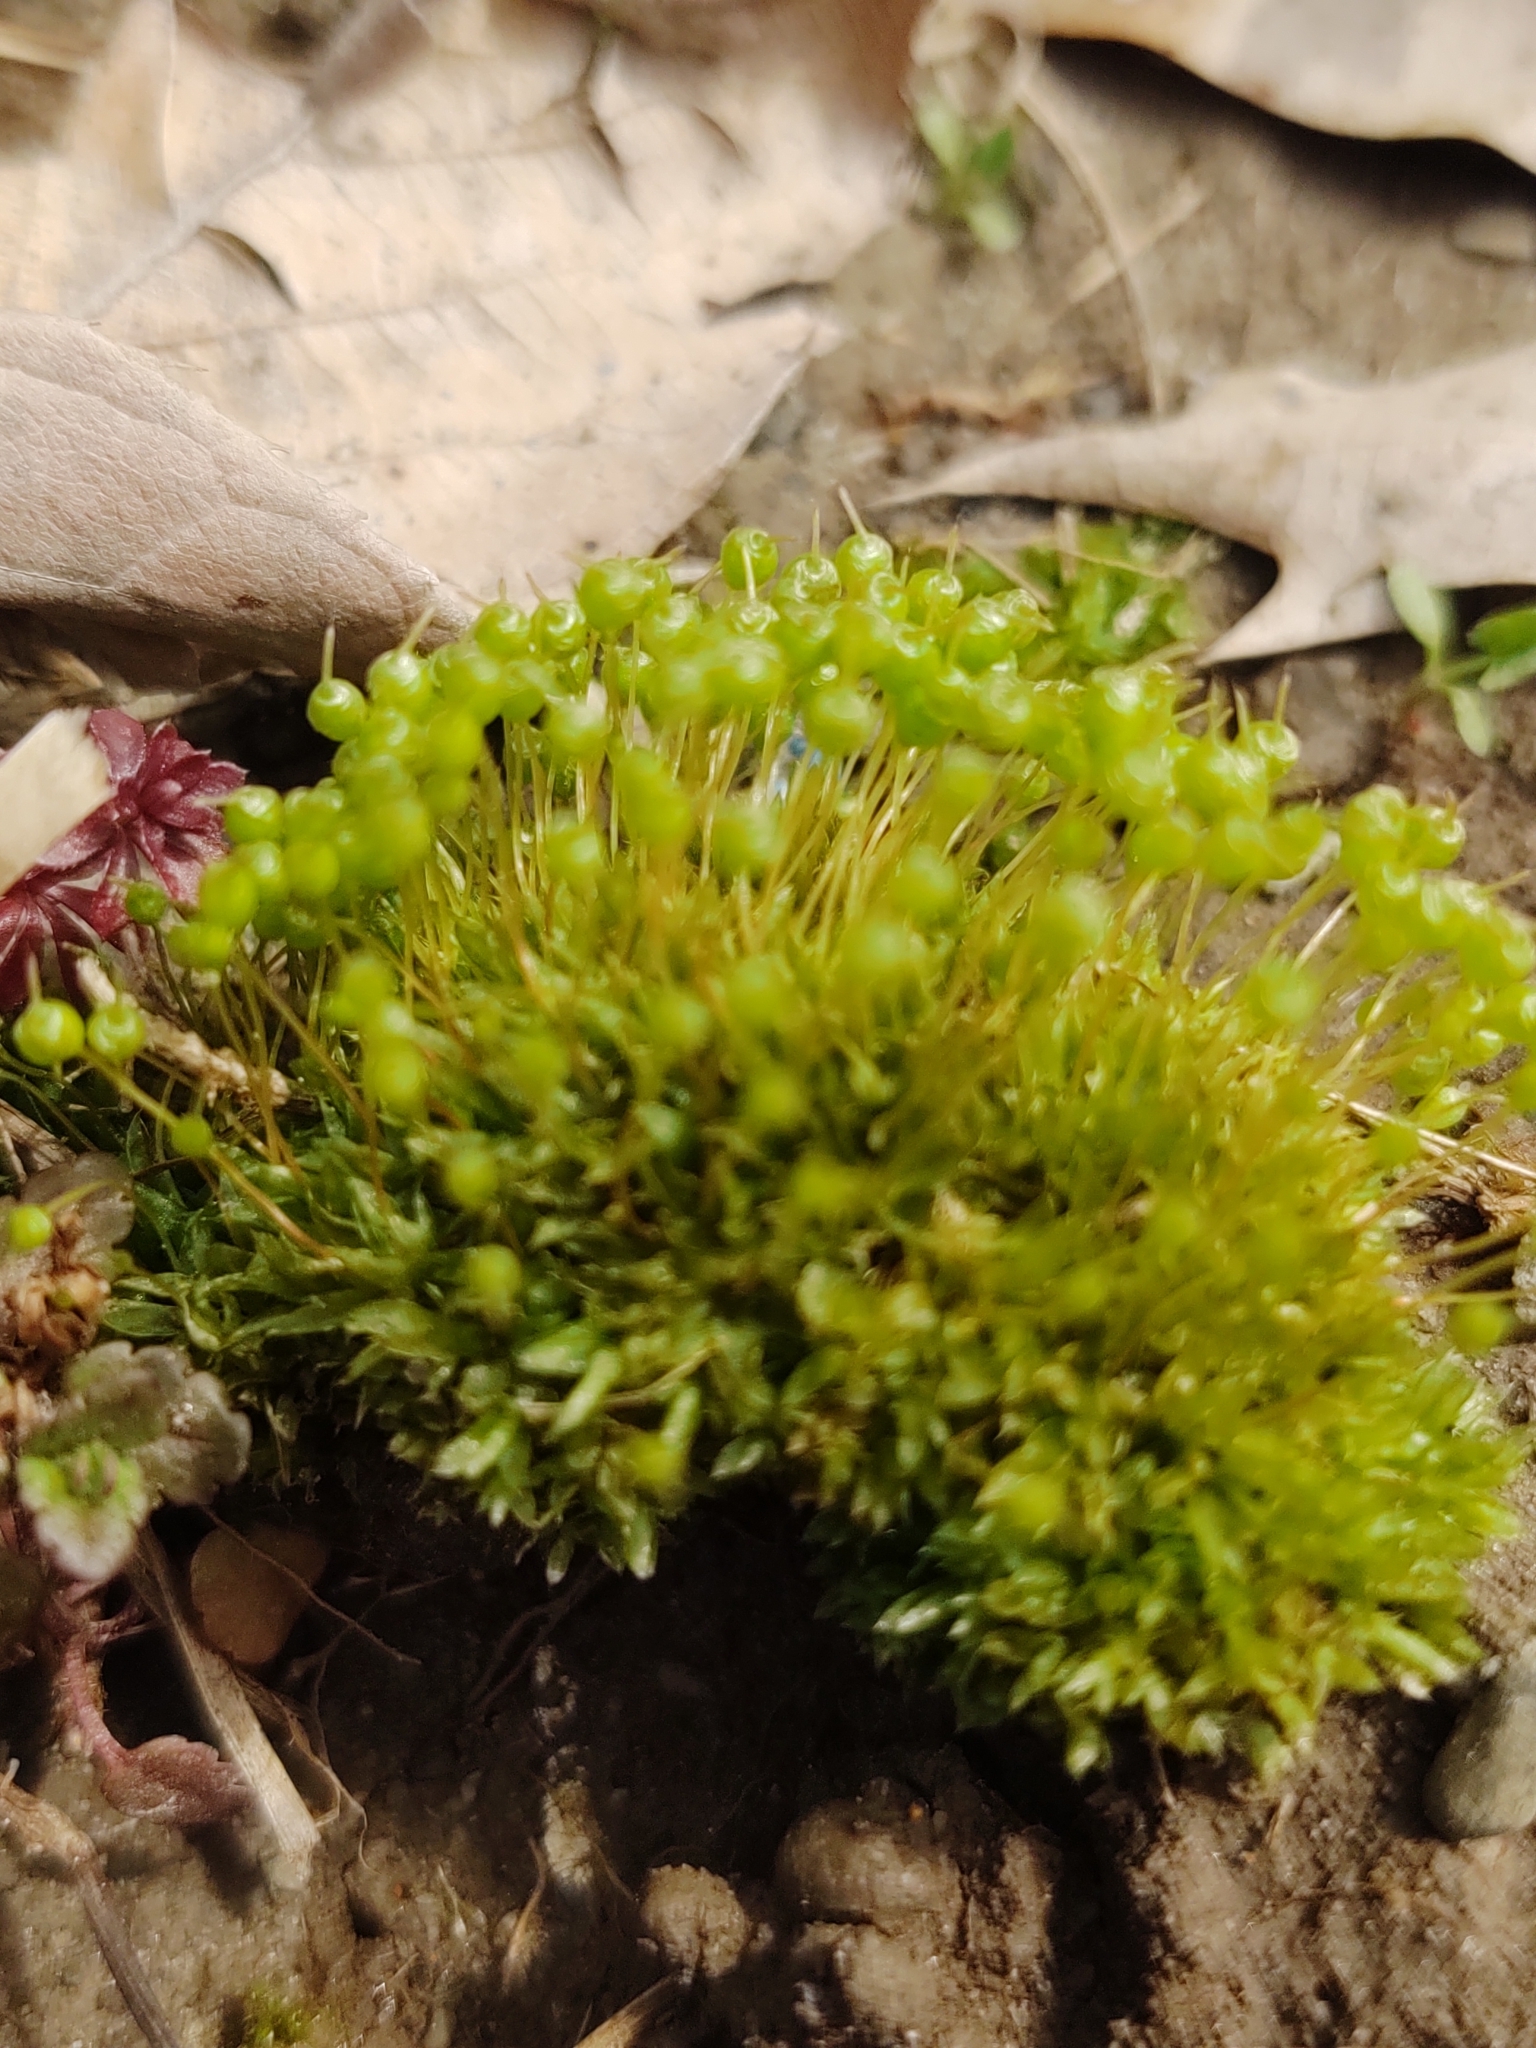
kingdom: Plantae
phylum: Bryophyta
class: Bryopsida
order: Funariales
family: Funariaceae
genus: Physcomitrium
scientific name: Physcomitrium pyriforme
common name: Common bladder-moss
